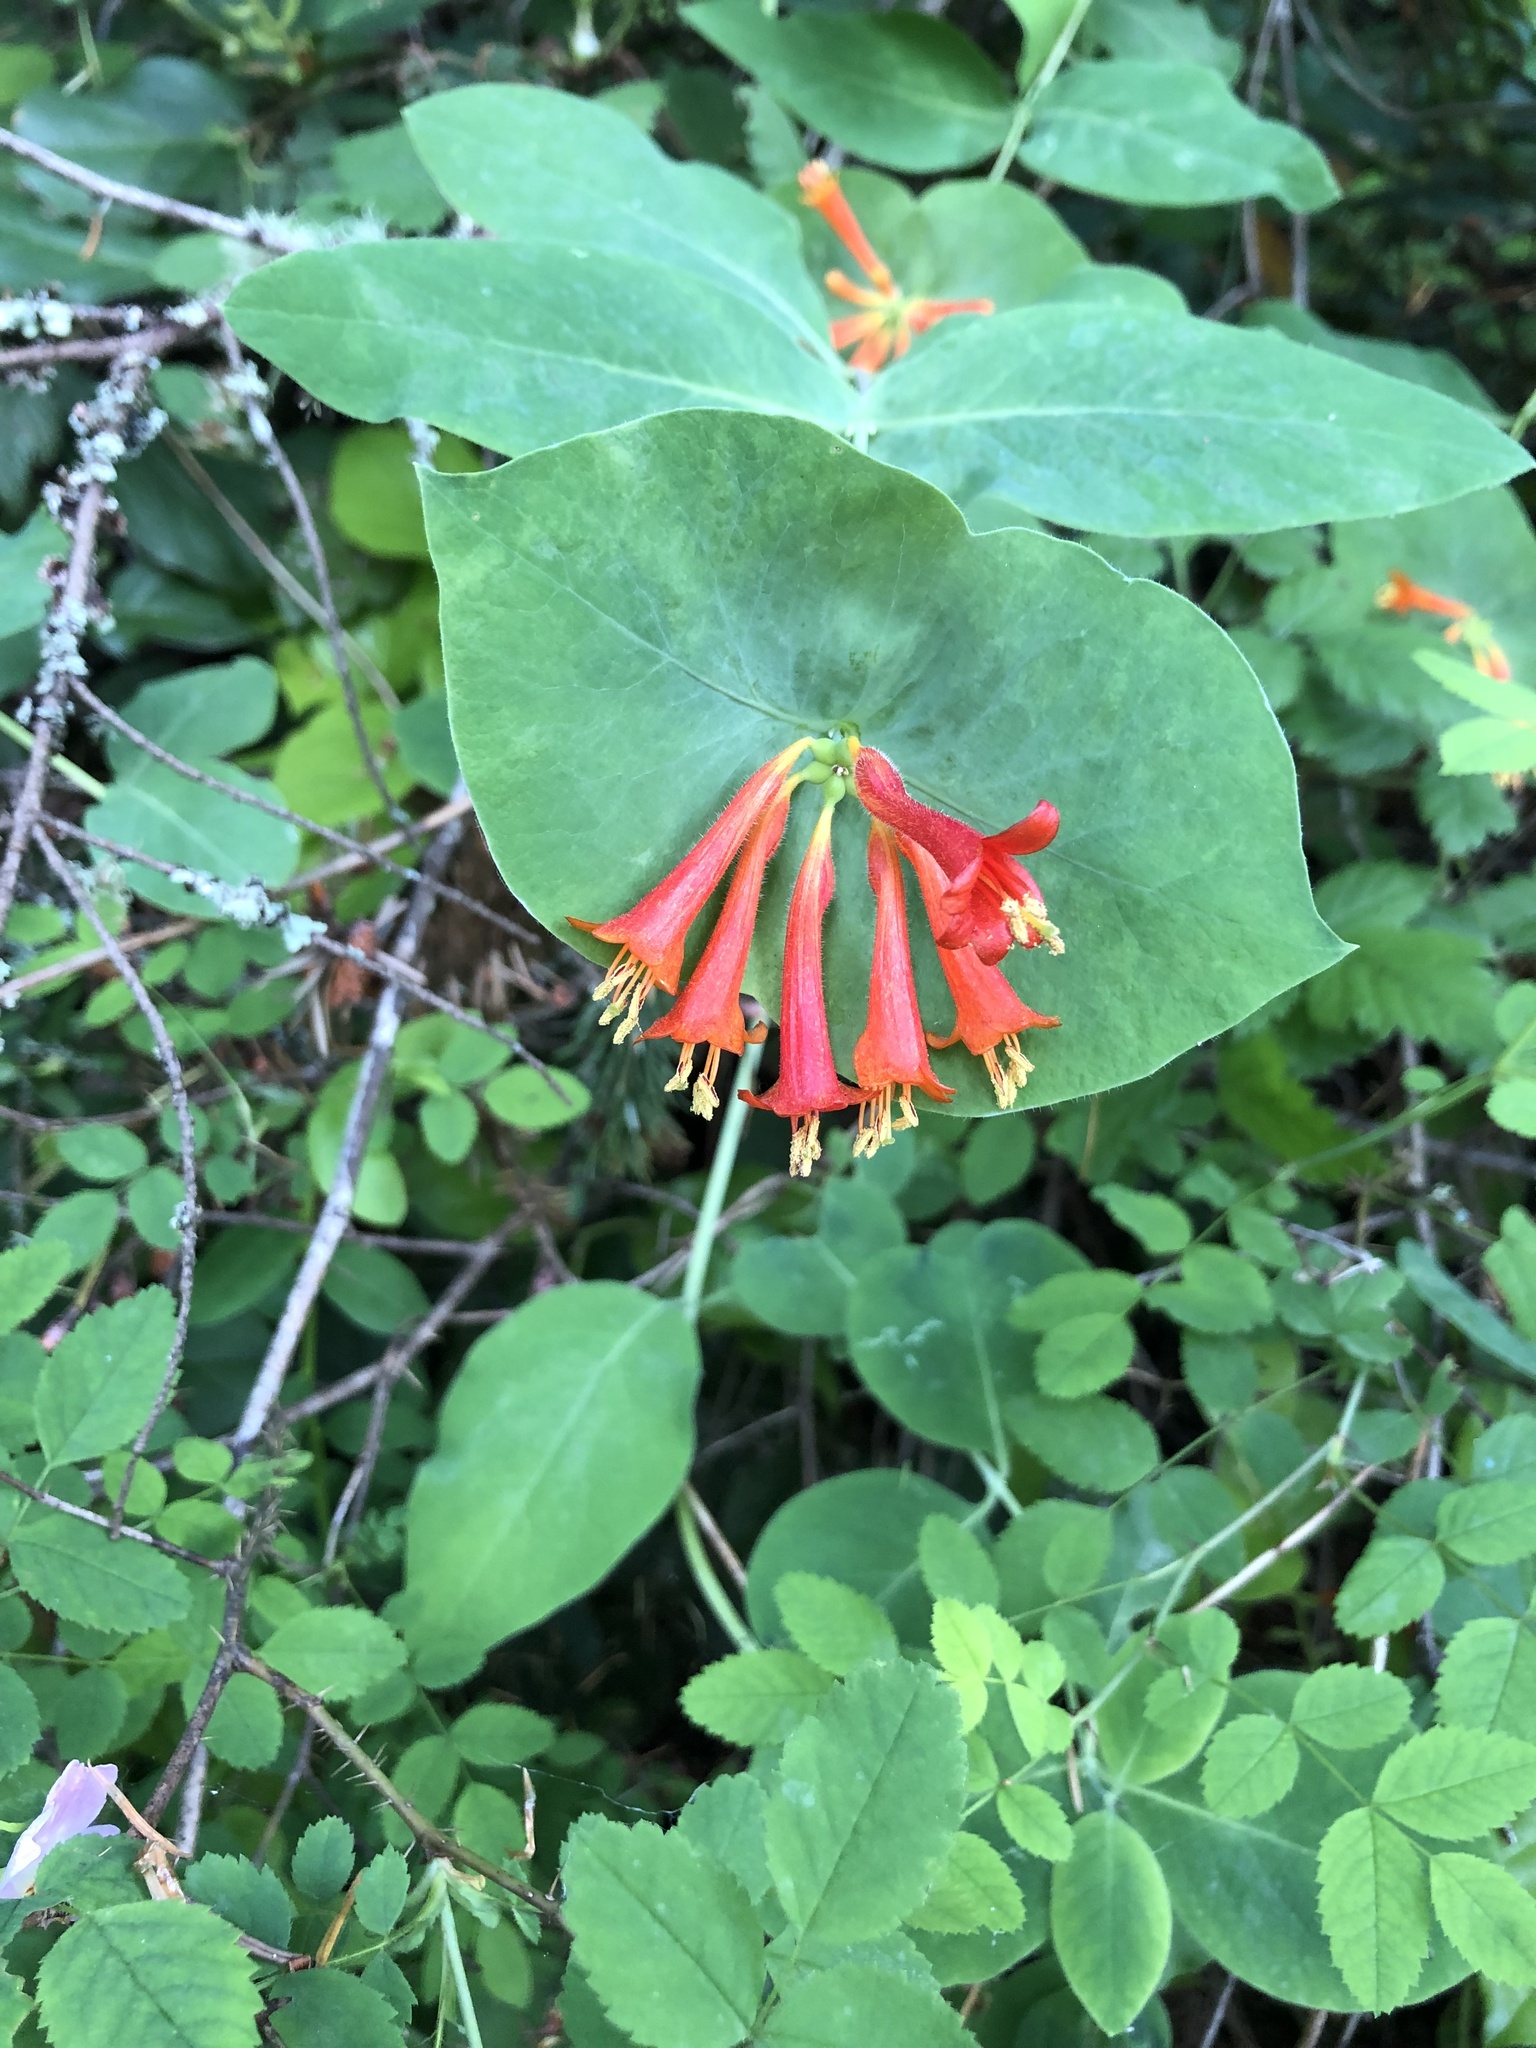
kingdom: Plantae
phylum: Tracheophyta
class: Magnoliopsida
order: Dipsacales
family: Caprifoliaceae
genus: Lonicera
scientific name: Lonicera ciliosa
